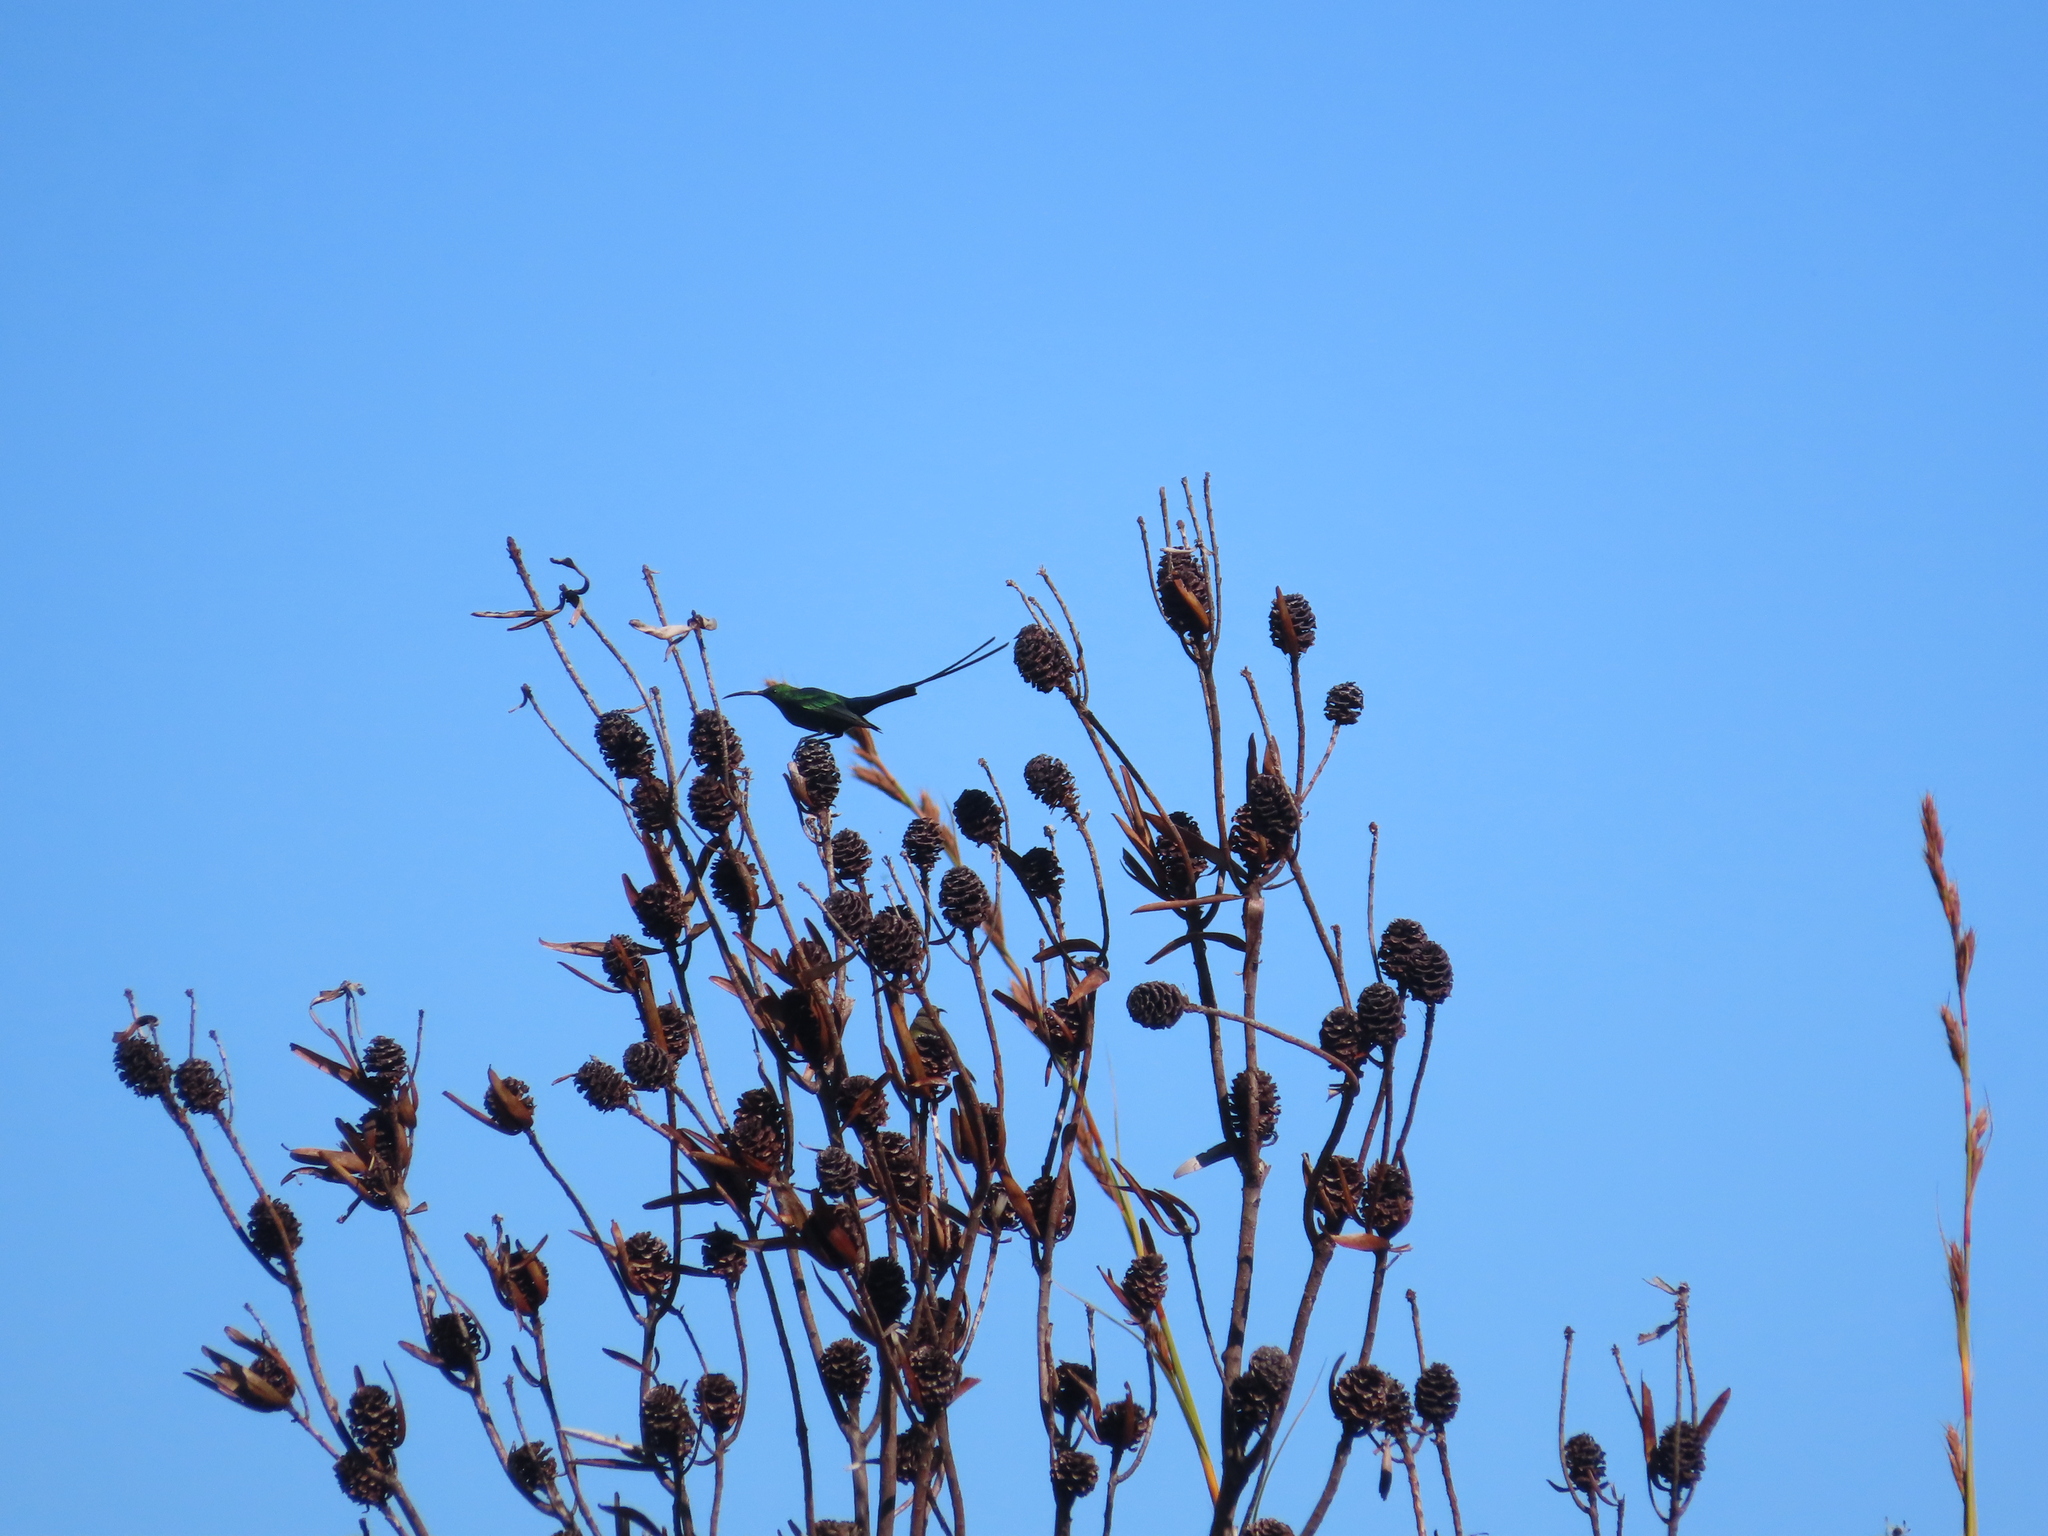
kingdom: Animalia
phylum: Chordata
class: Aves
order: Passeriformes
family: Nectariniidae
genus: Nectarinia
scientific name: Nectarinia famosa
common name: Malachite sunbird
